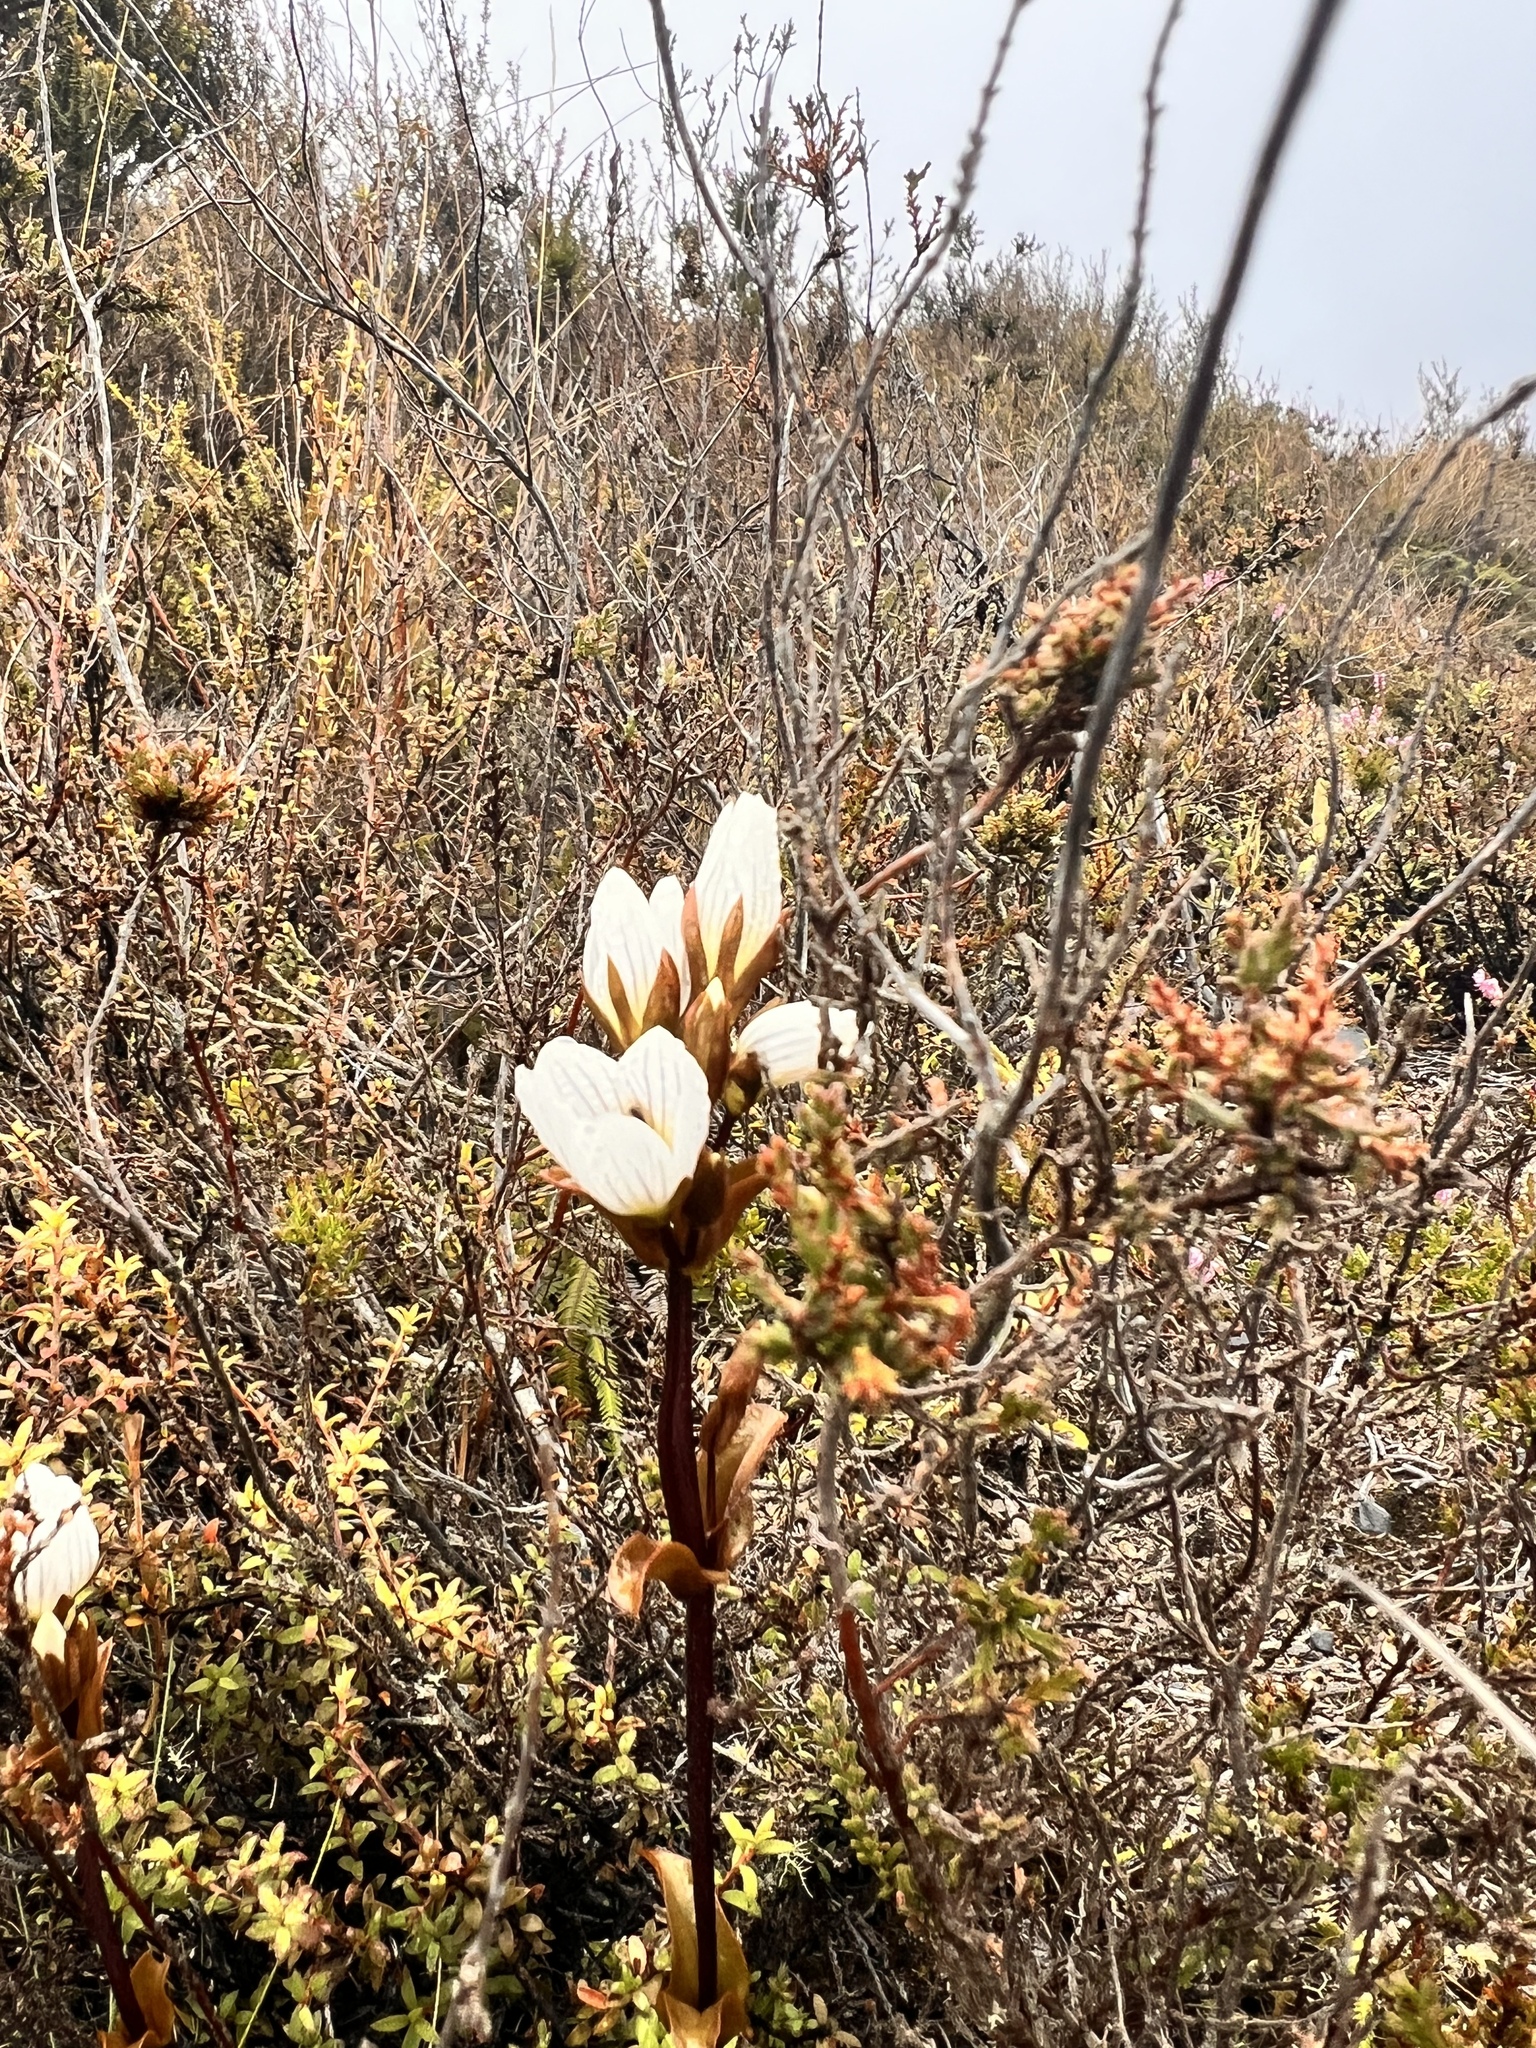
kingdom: Plantae
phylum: Tracheophyta
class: Magnoliopsida
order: Gentianales
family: Gentianaceae
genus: Gentianella
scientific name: Gentianella bellidifolia
